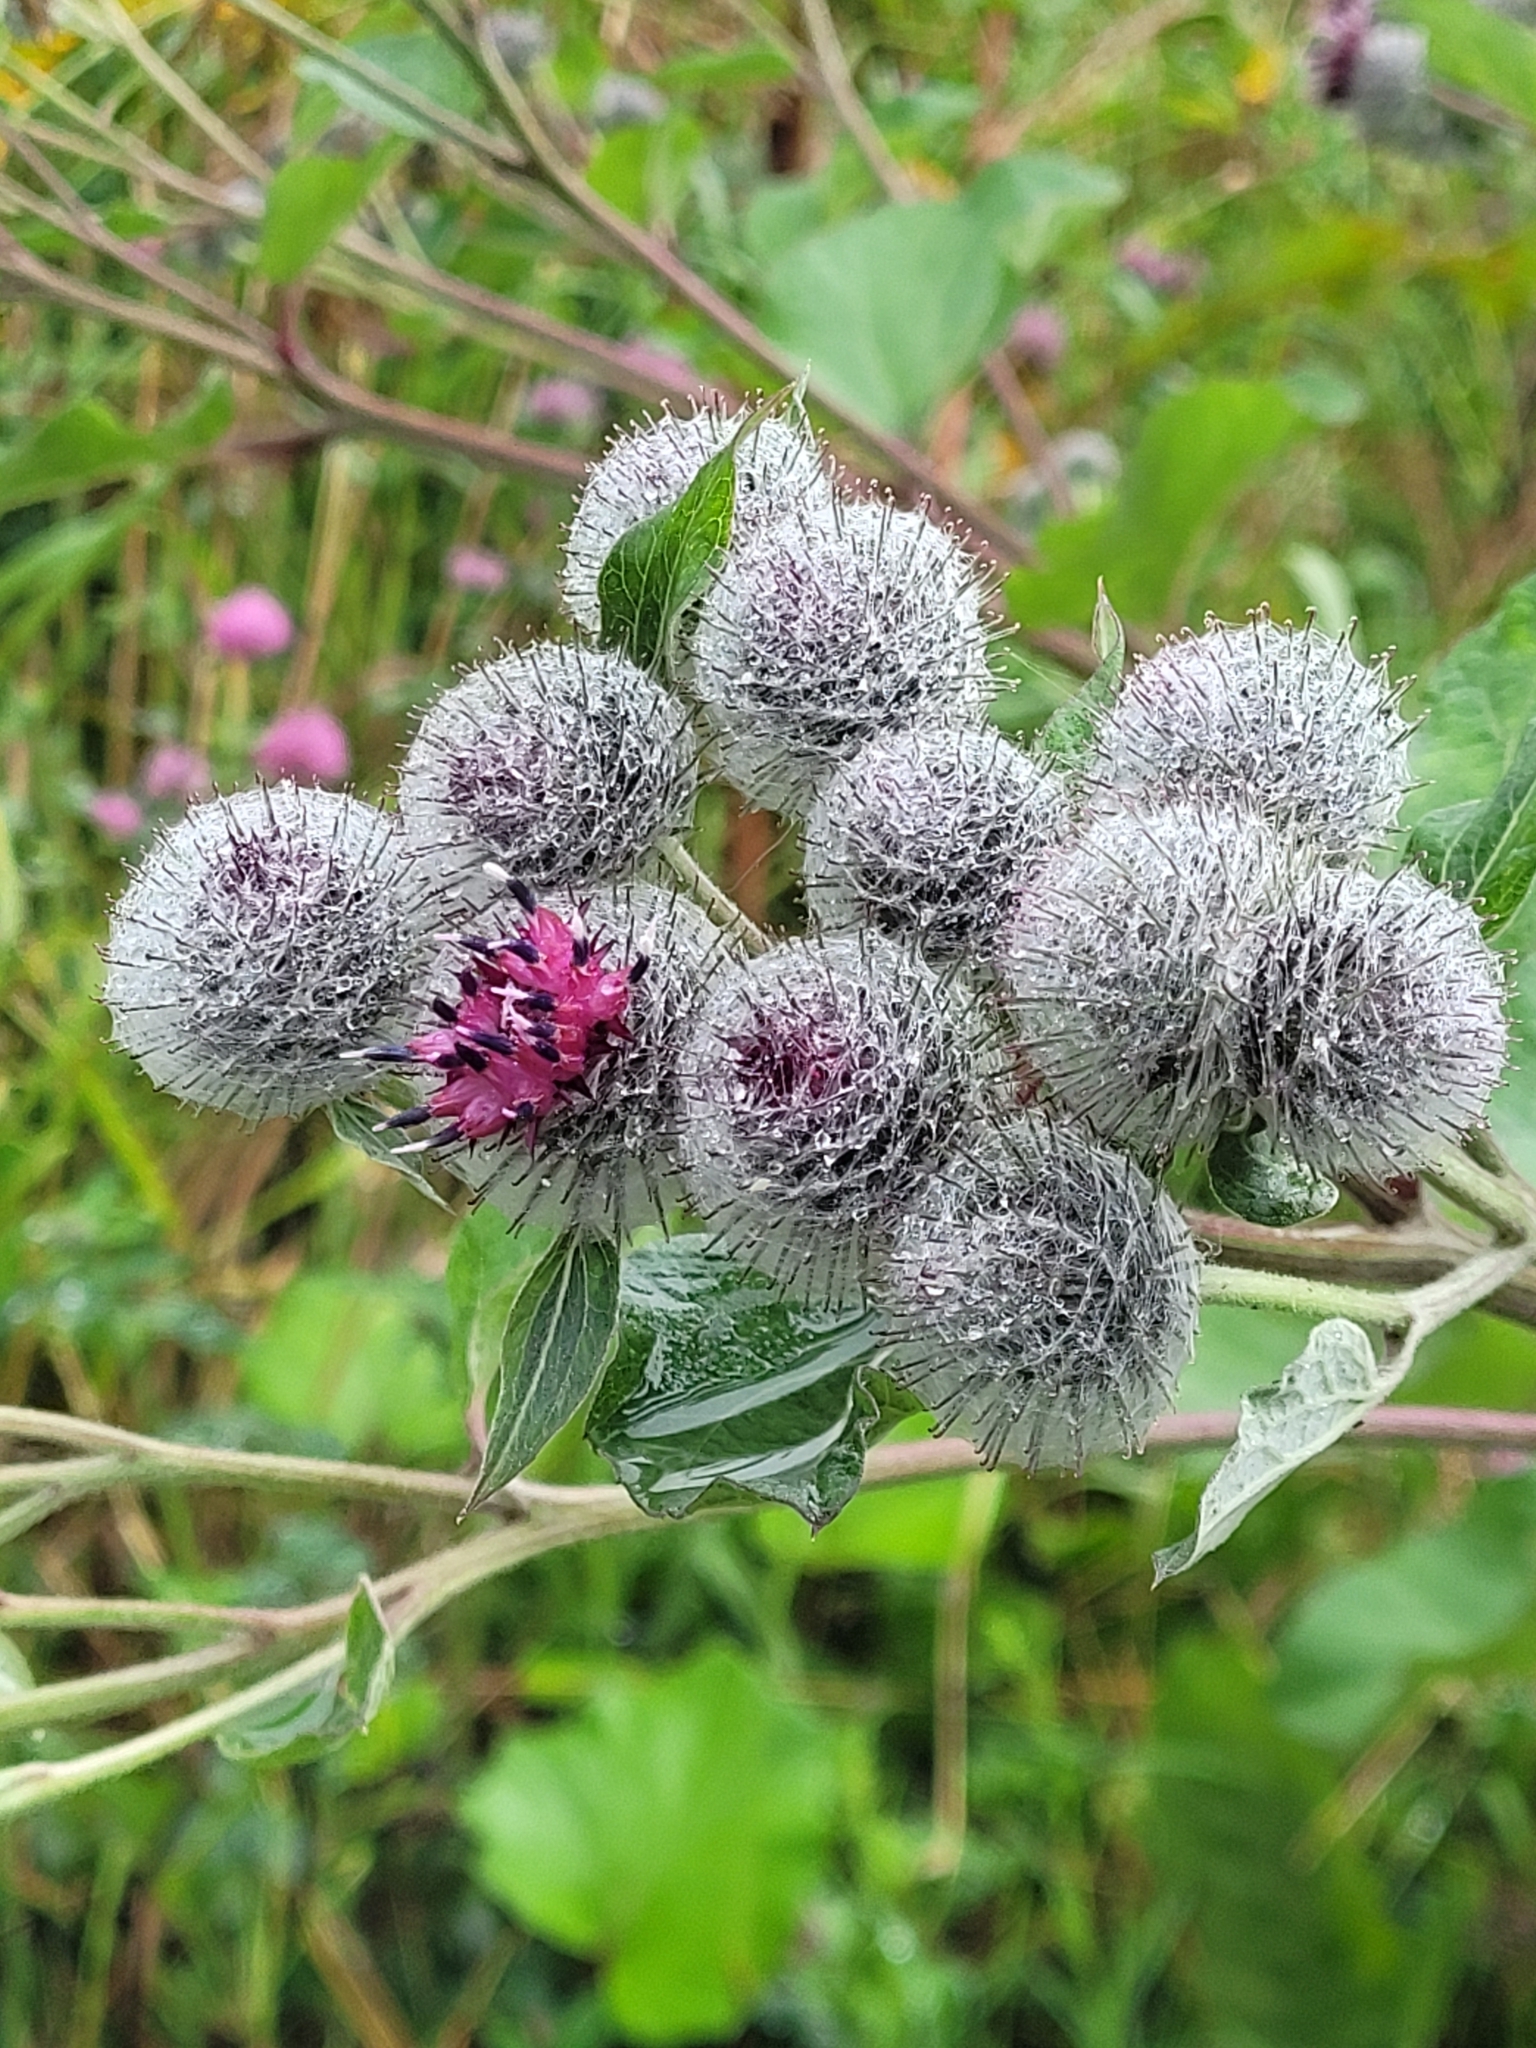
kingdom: Plantae
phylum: Tracheophyta
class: Magnoliopsida
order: Asterales
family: Asteraceae
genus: Arctium
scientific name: Arctium tomentosum
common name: Woolly burdock
